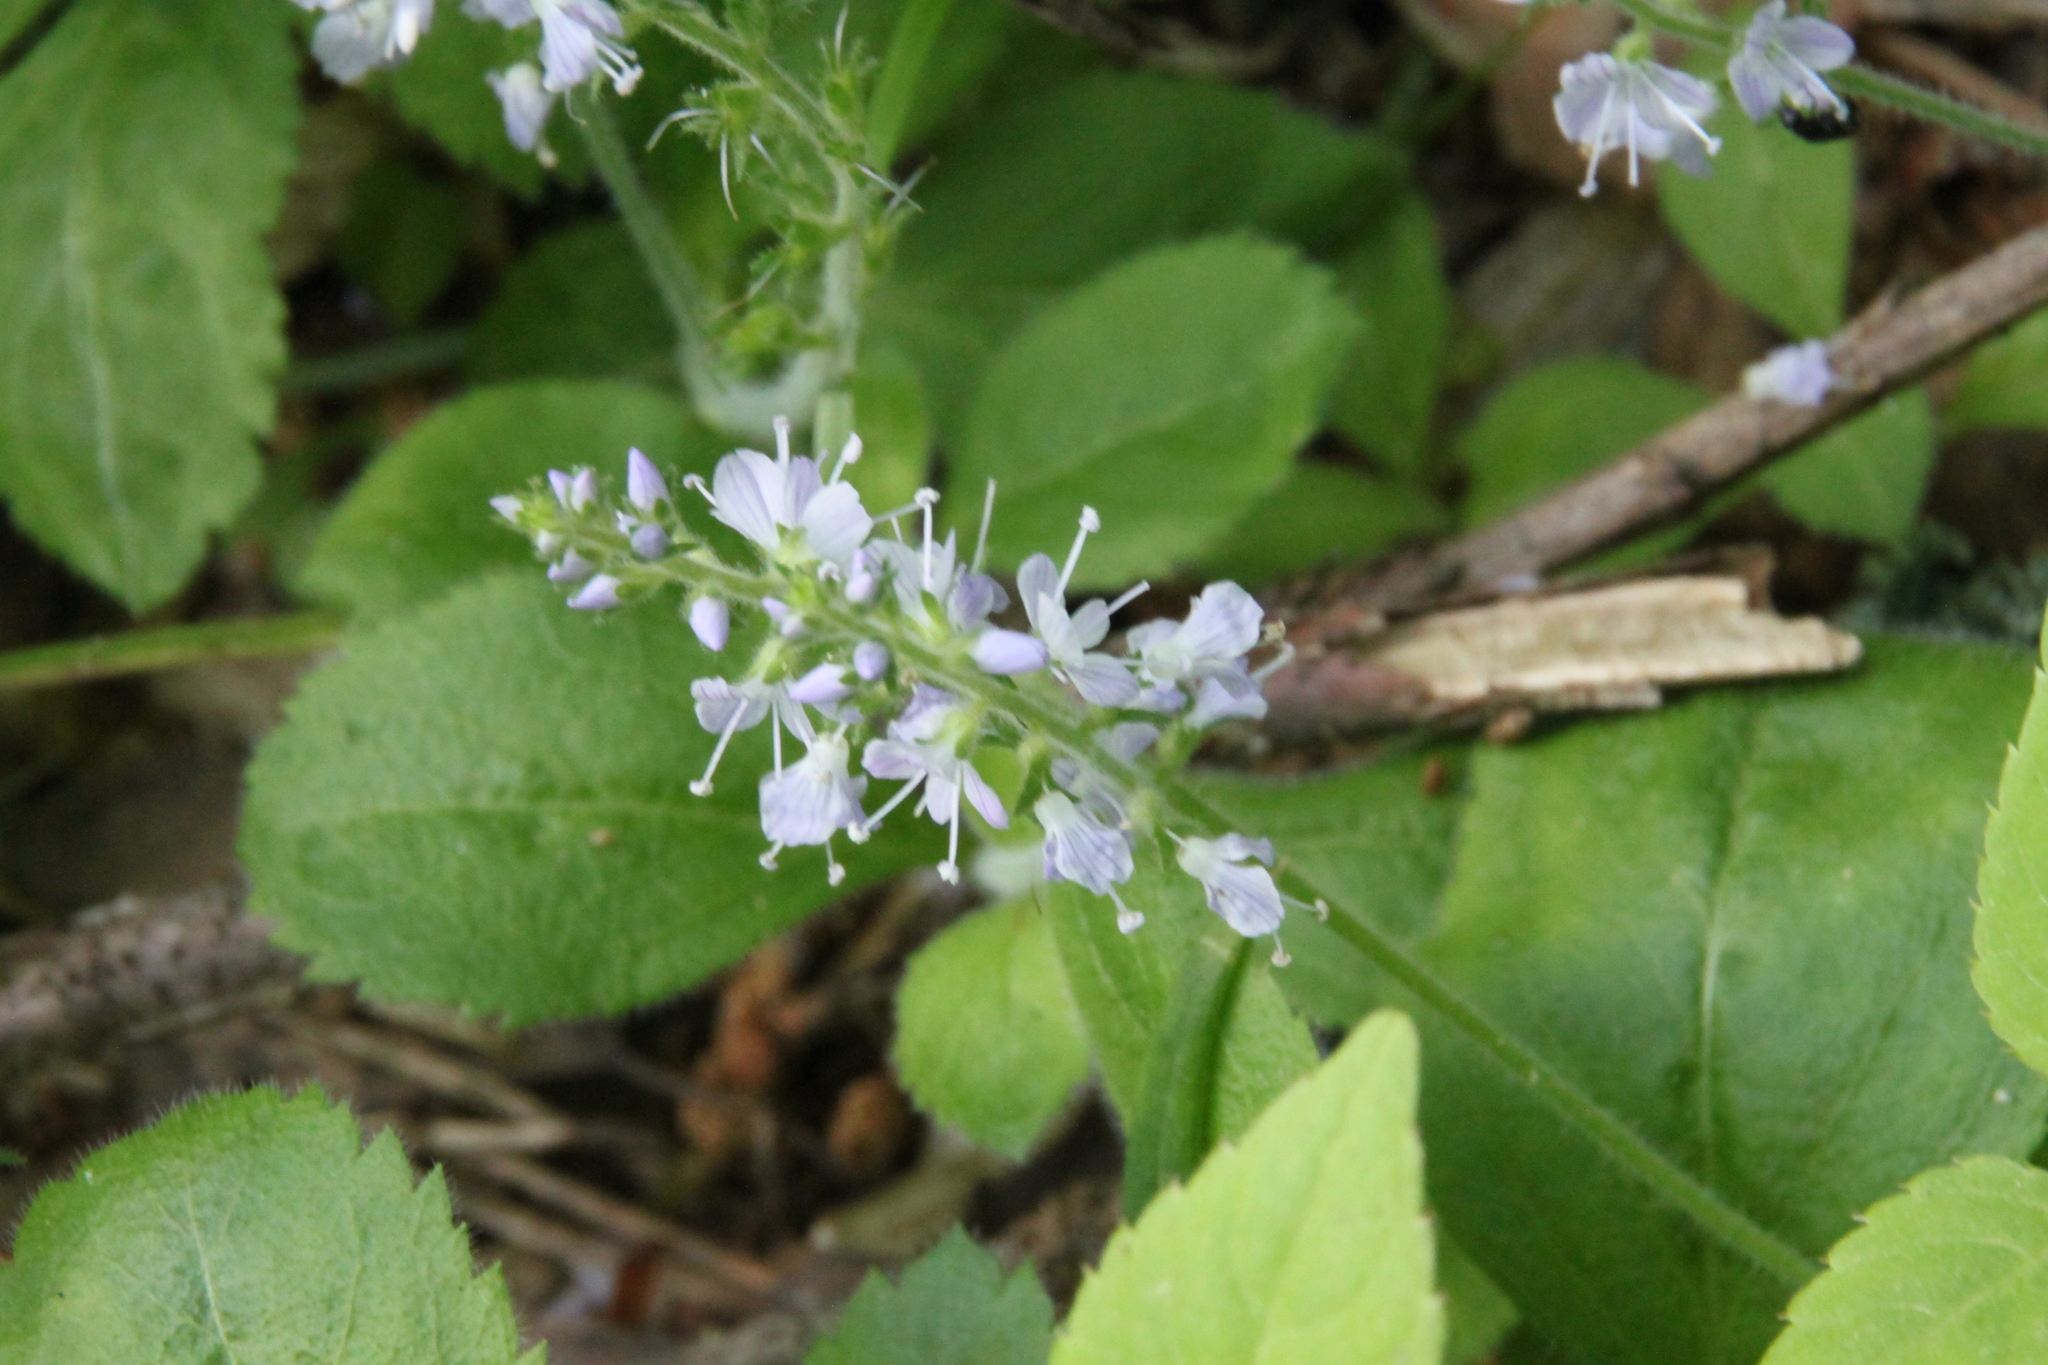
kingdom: Plantae
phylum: Tracheophyta
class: Magnoliopsida
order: Lamiales
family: Plantaginaceae
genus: Veronica
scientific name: Veronica officinalis
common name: Common speedwell
